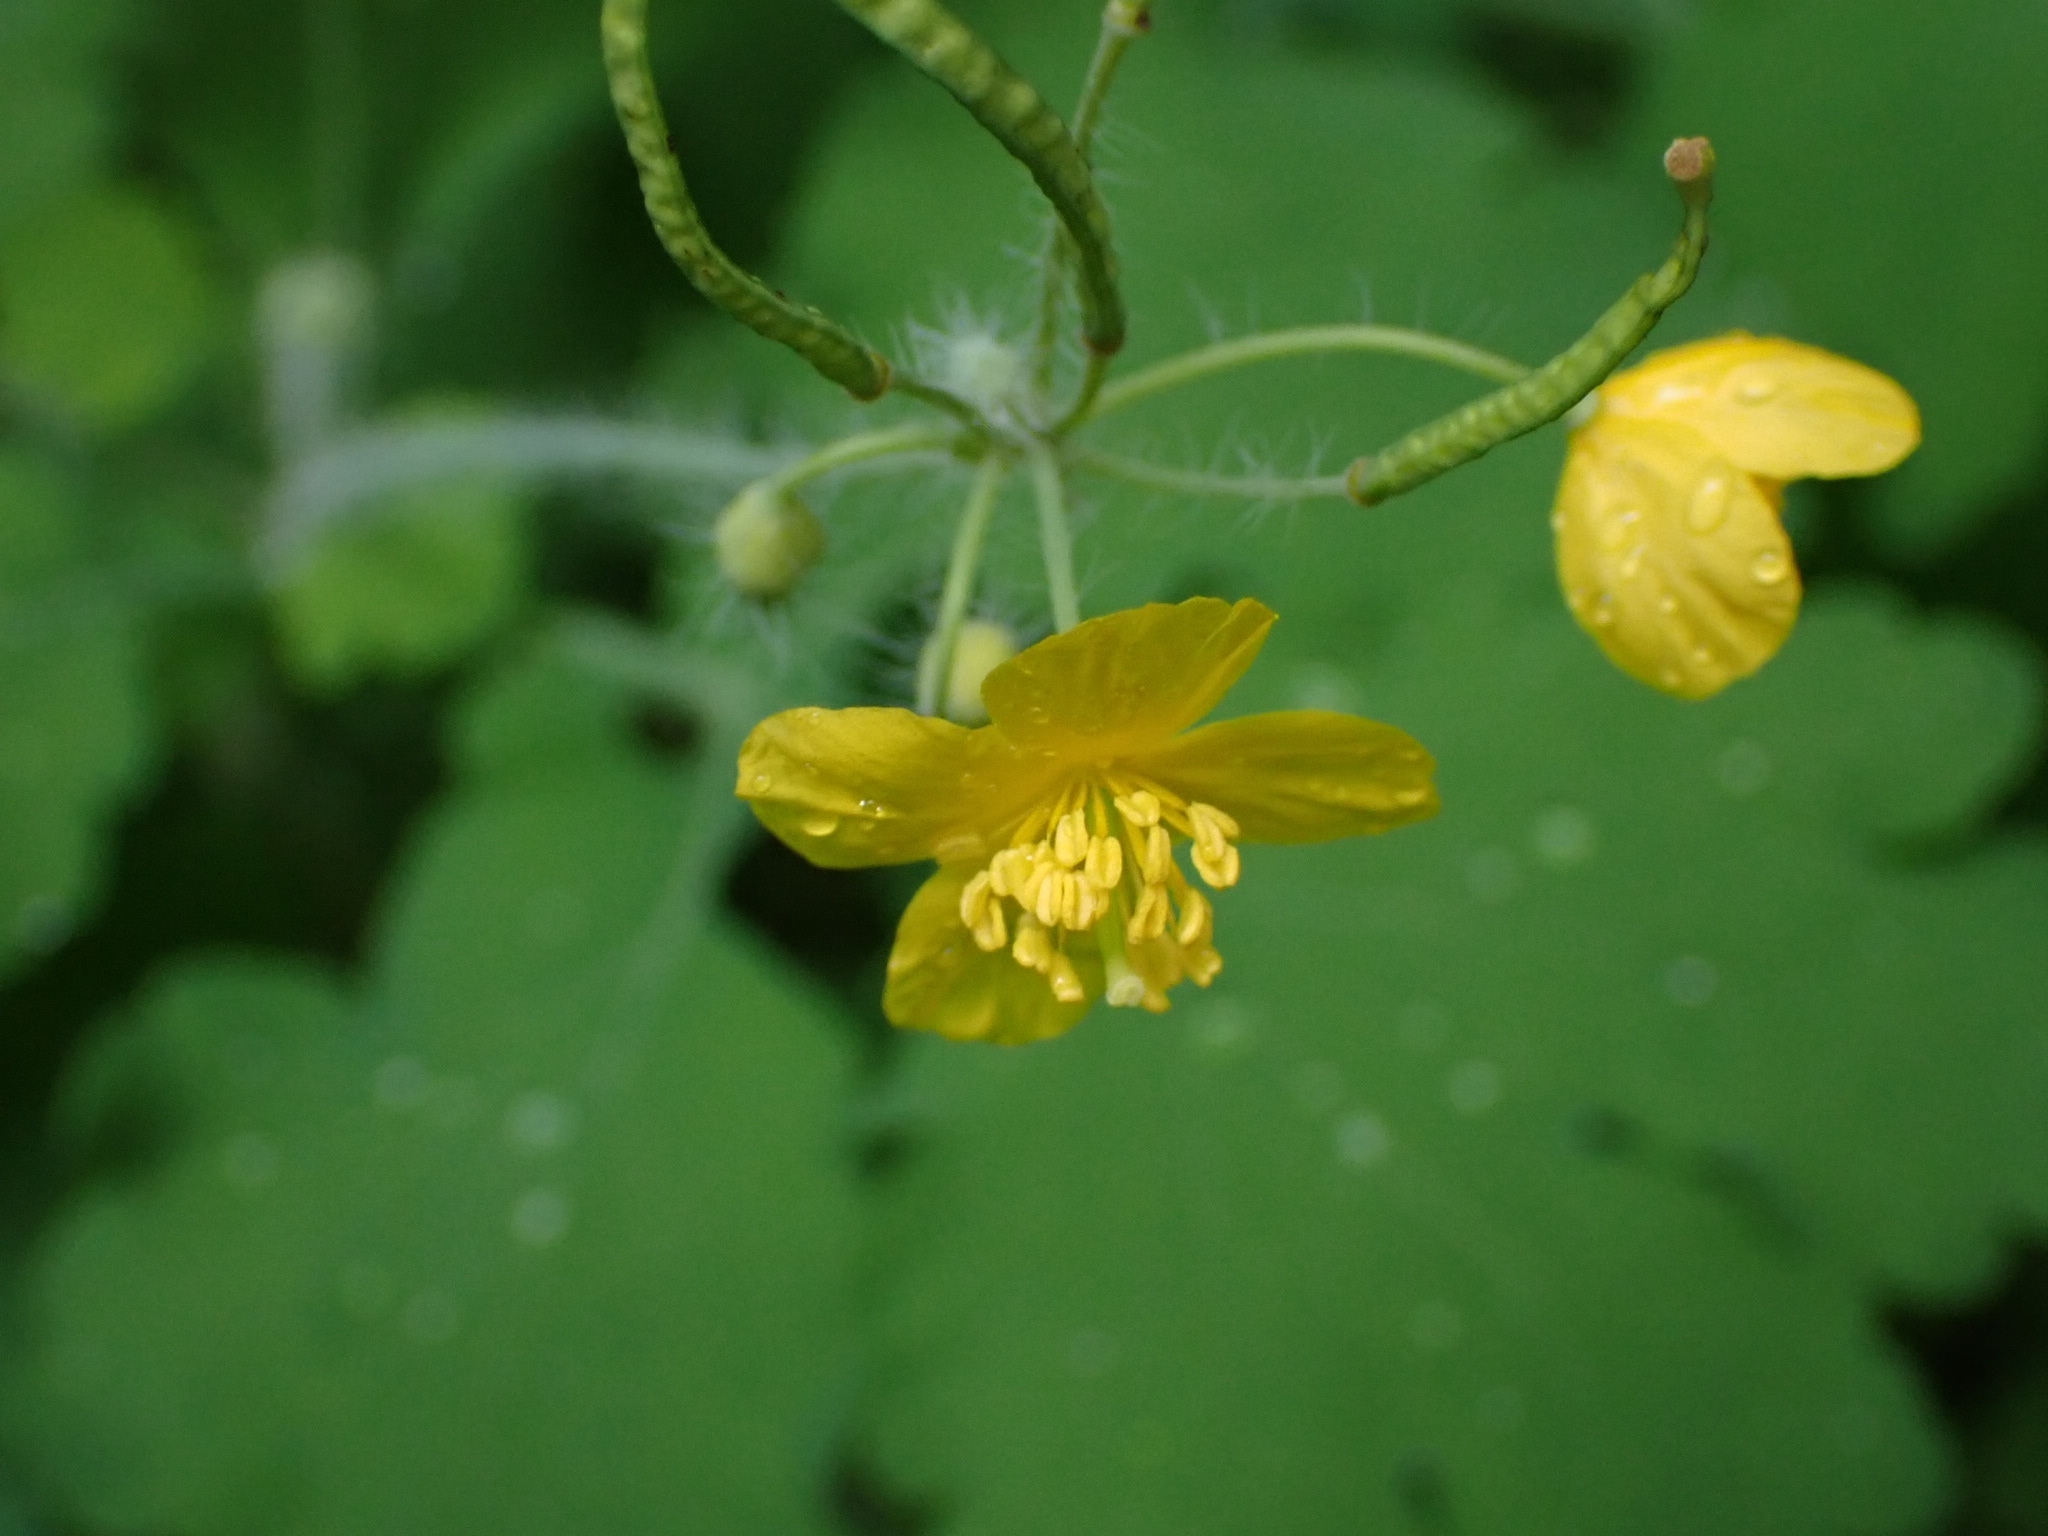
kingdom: Plantae
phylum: Tracheophyta
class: Magnoliopsida
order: Ranunculales
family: Papaveraceae
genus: Chelidonium
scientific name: Chelidonium majus
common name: Greater celandine
